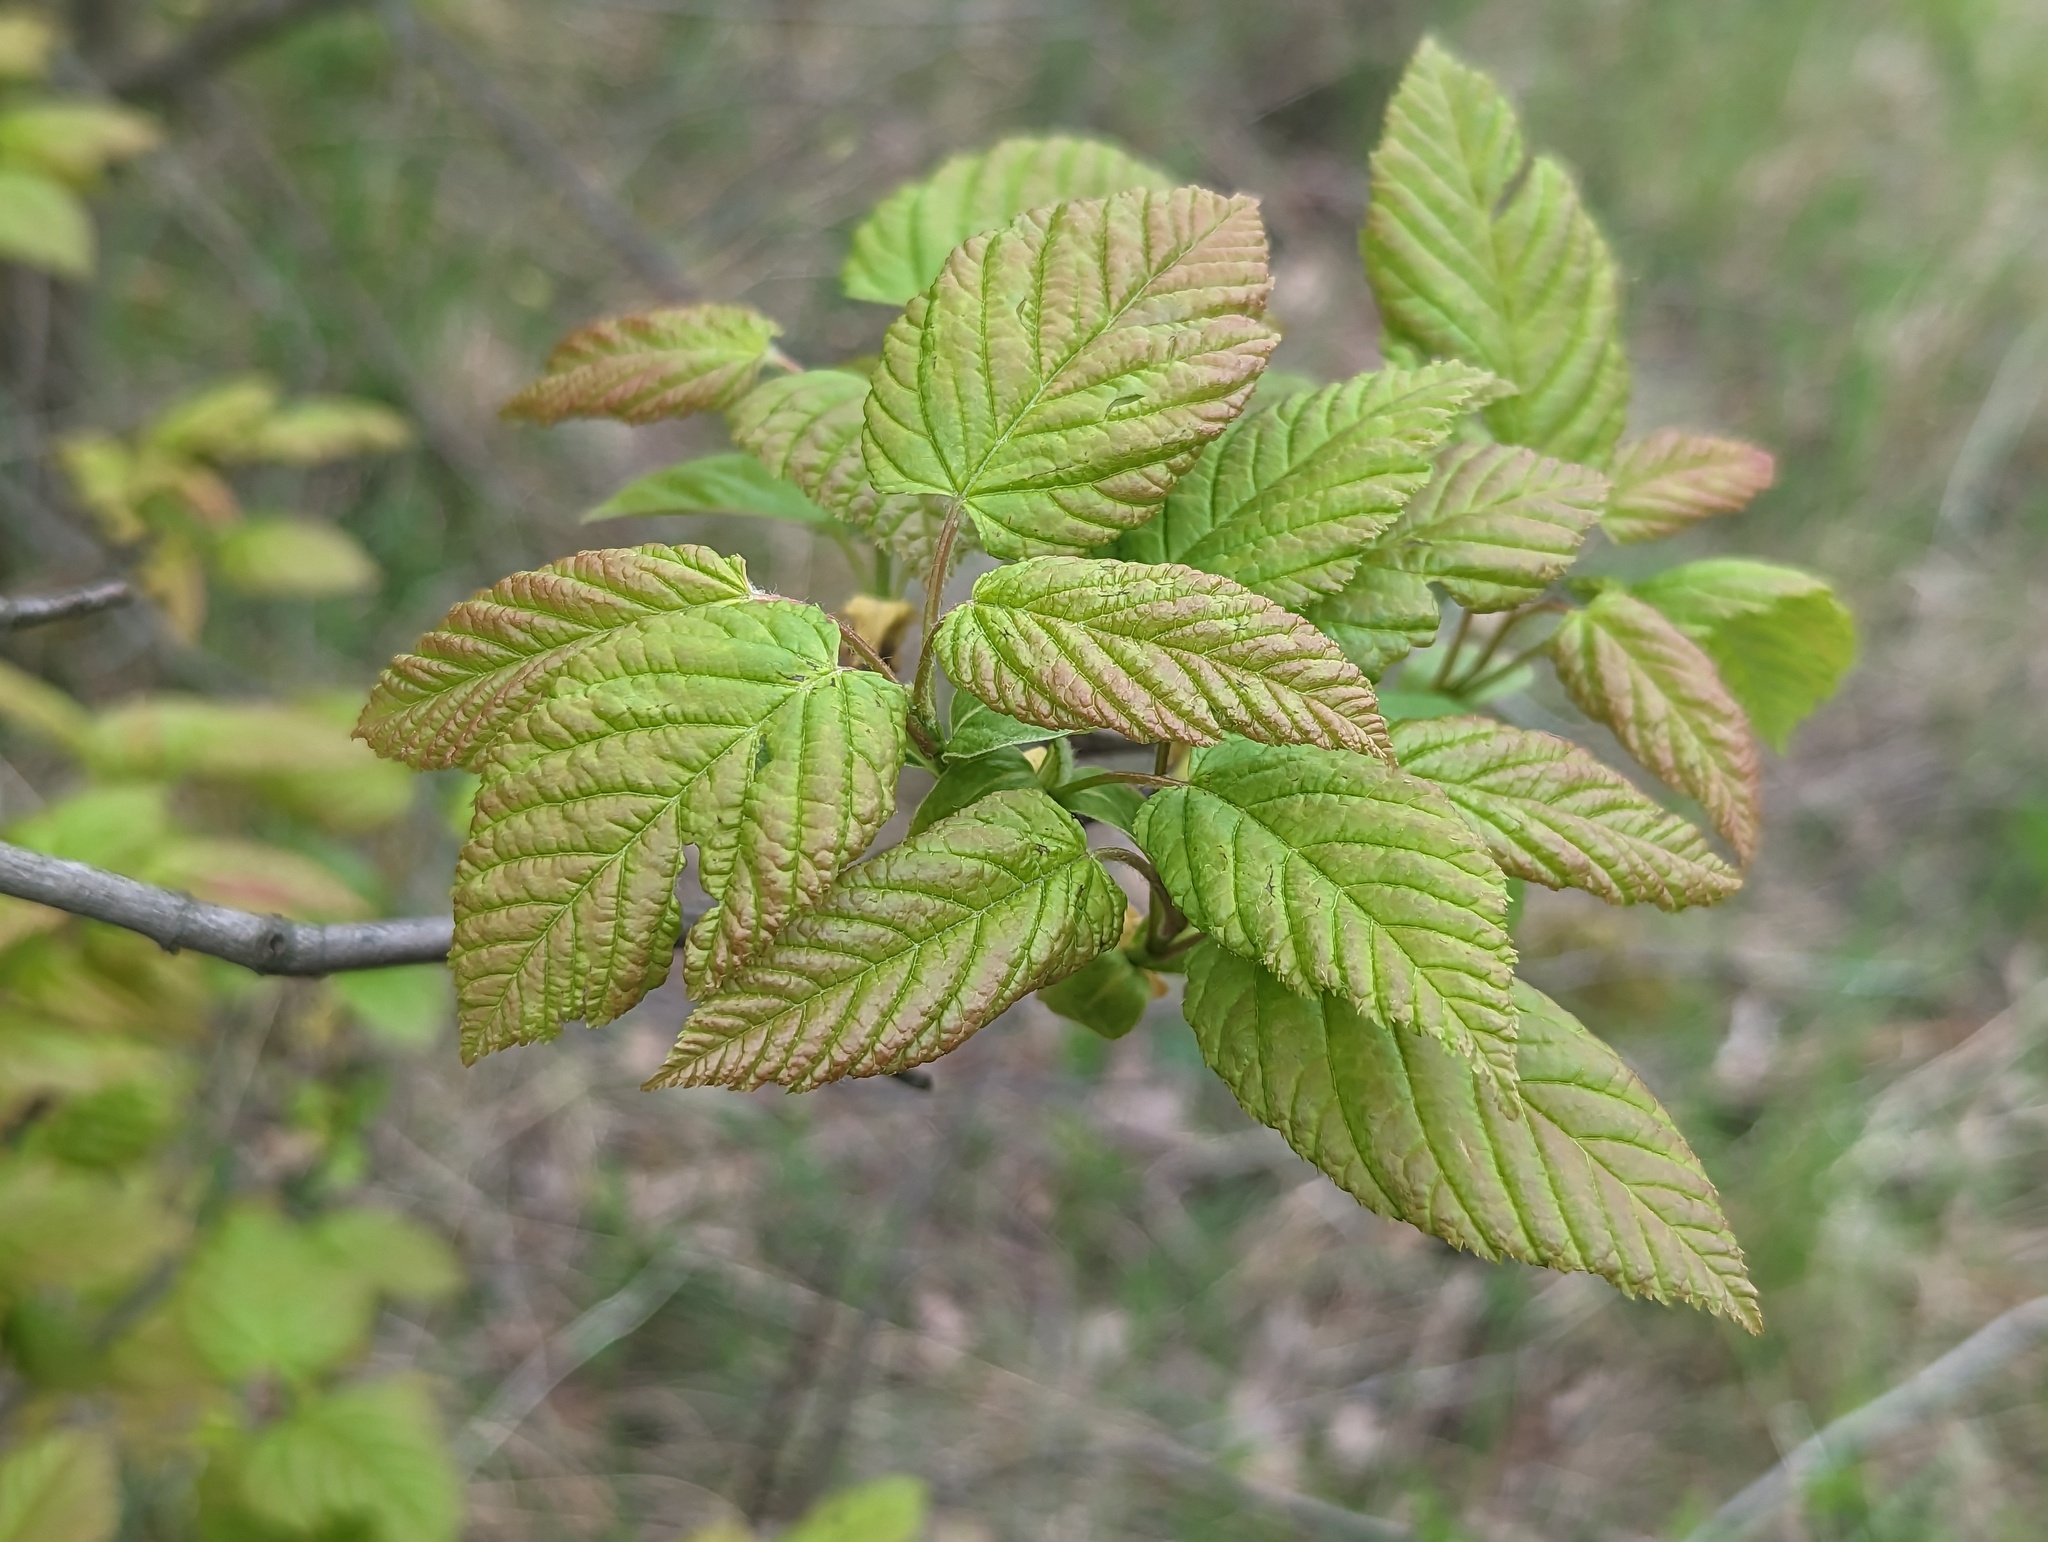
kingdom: Plantae
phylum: Tracheophyta
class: Magnoliopsida
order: Sapindales
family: Sapindaceae
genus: Acer
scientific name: Acer tataricum
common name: Tartar maple
